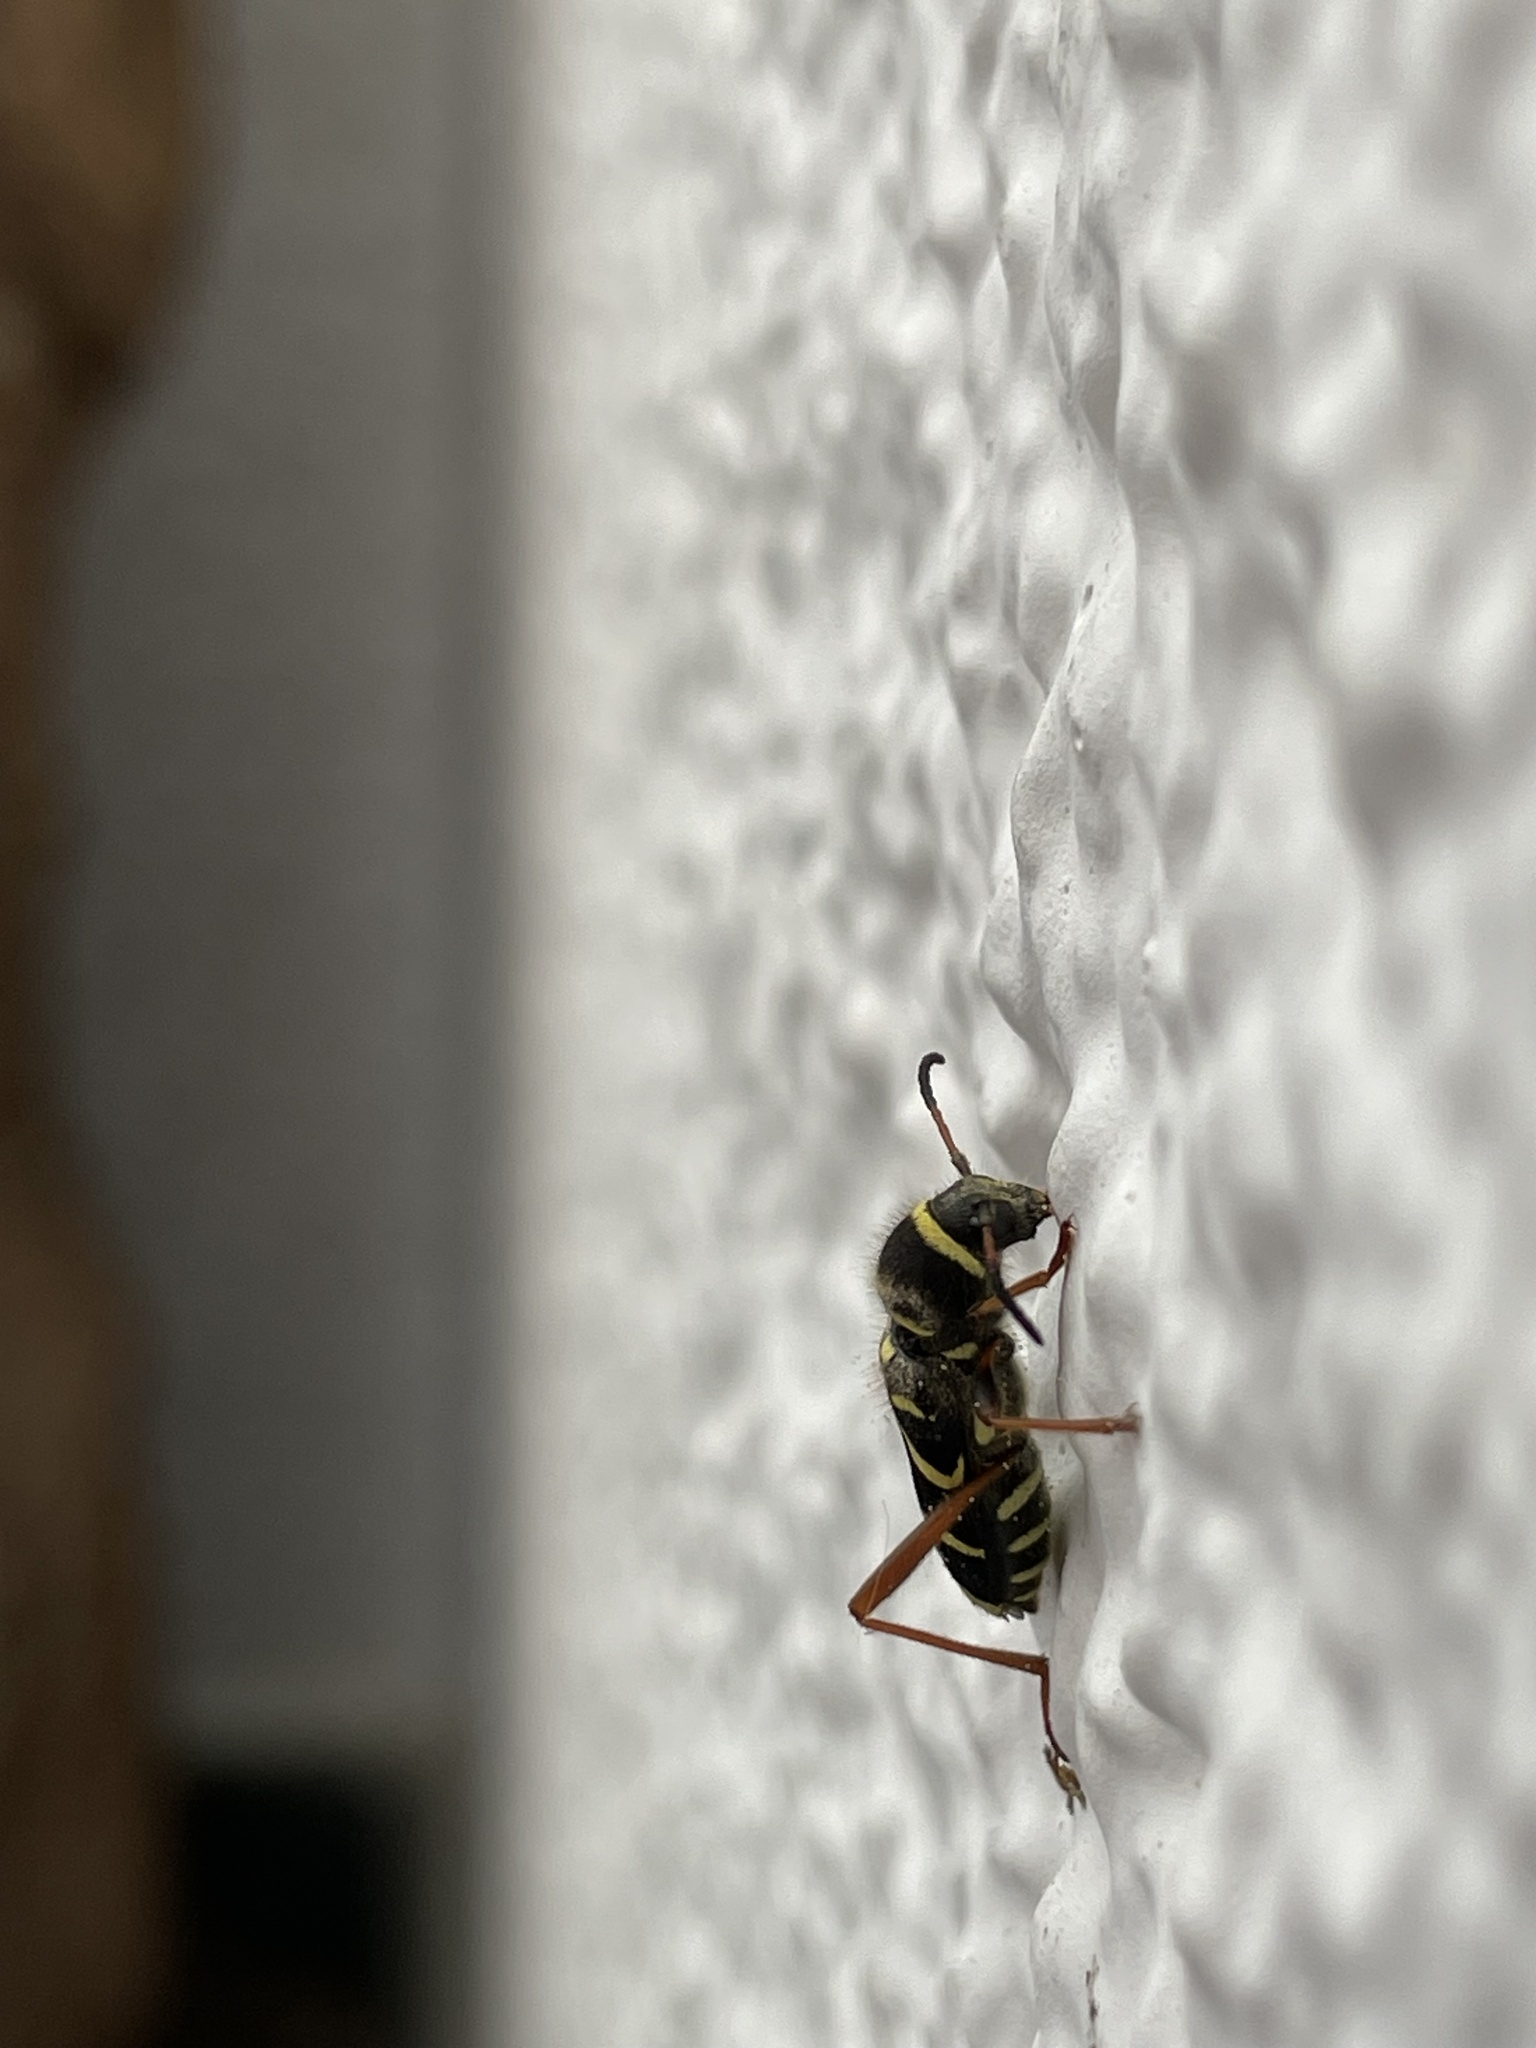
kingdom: Animalia
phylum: Arthropoda
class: Insecta
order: Coleoptera
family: Cerambycidae
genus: Clytus
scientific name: Clytus arietis
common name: Wasp beetle
